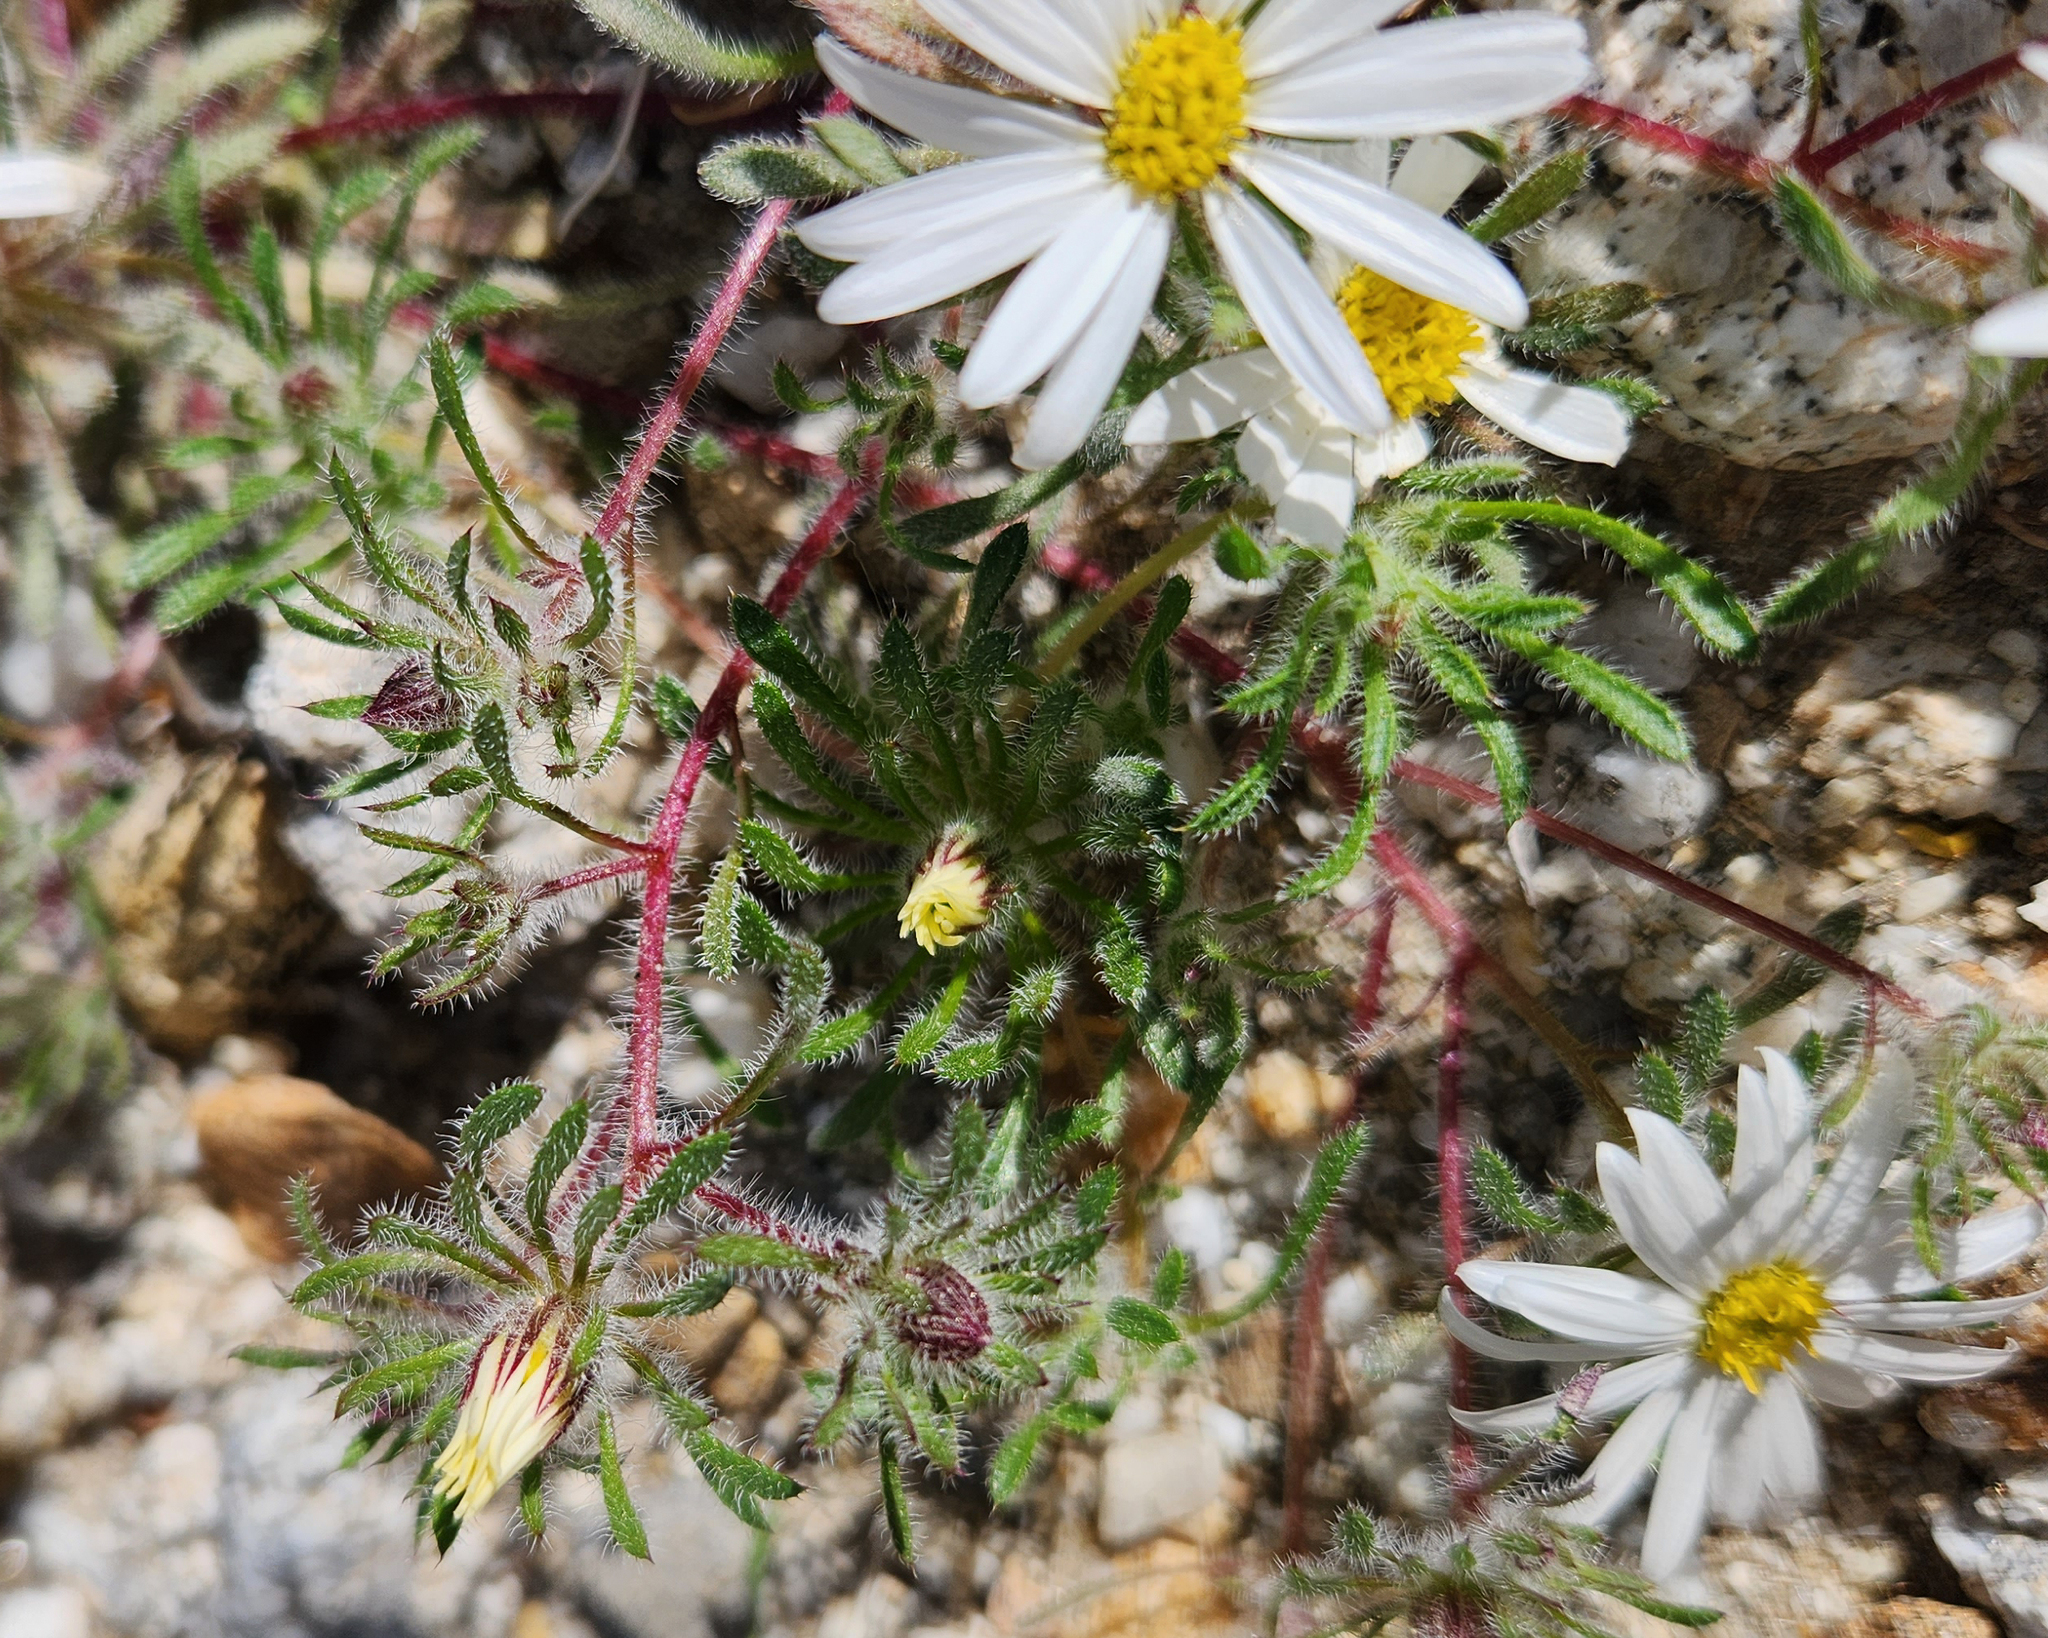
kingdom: Plantae
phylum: Tracheophyta
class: Magnoliopsida
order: Asterales
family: Asteraceae
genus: Monoptilon
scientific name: Monoptilon bellioides
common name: Bristly desertstar
